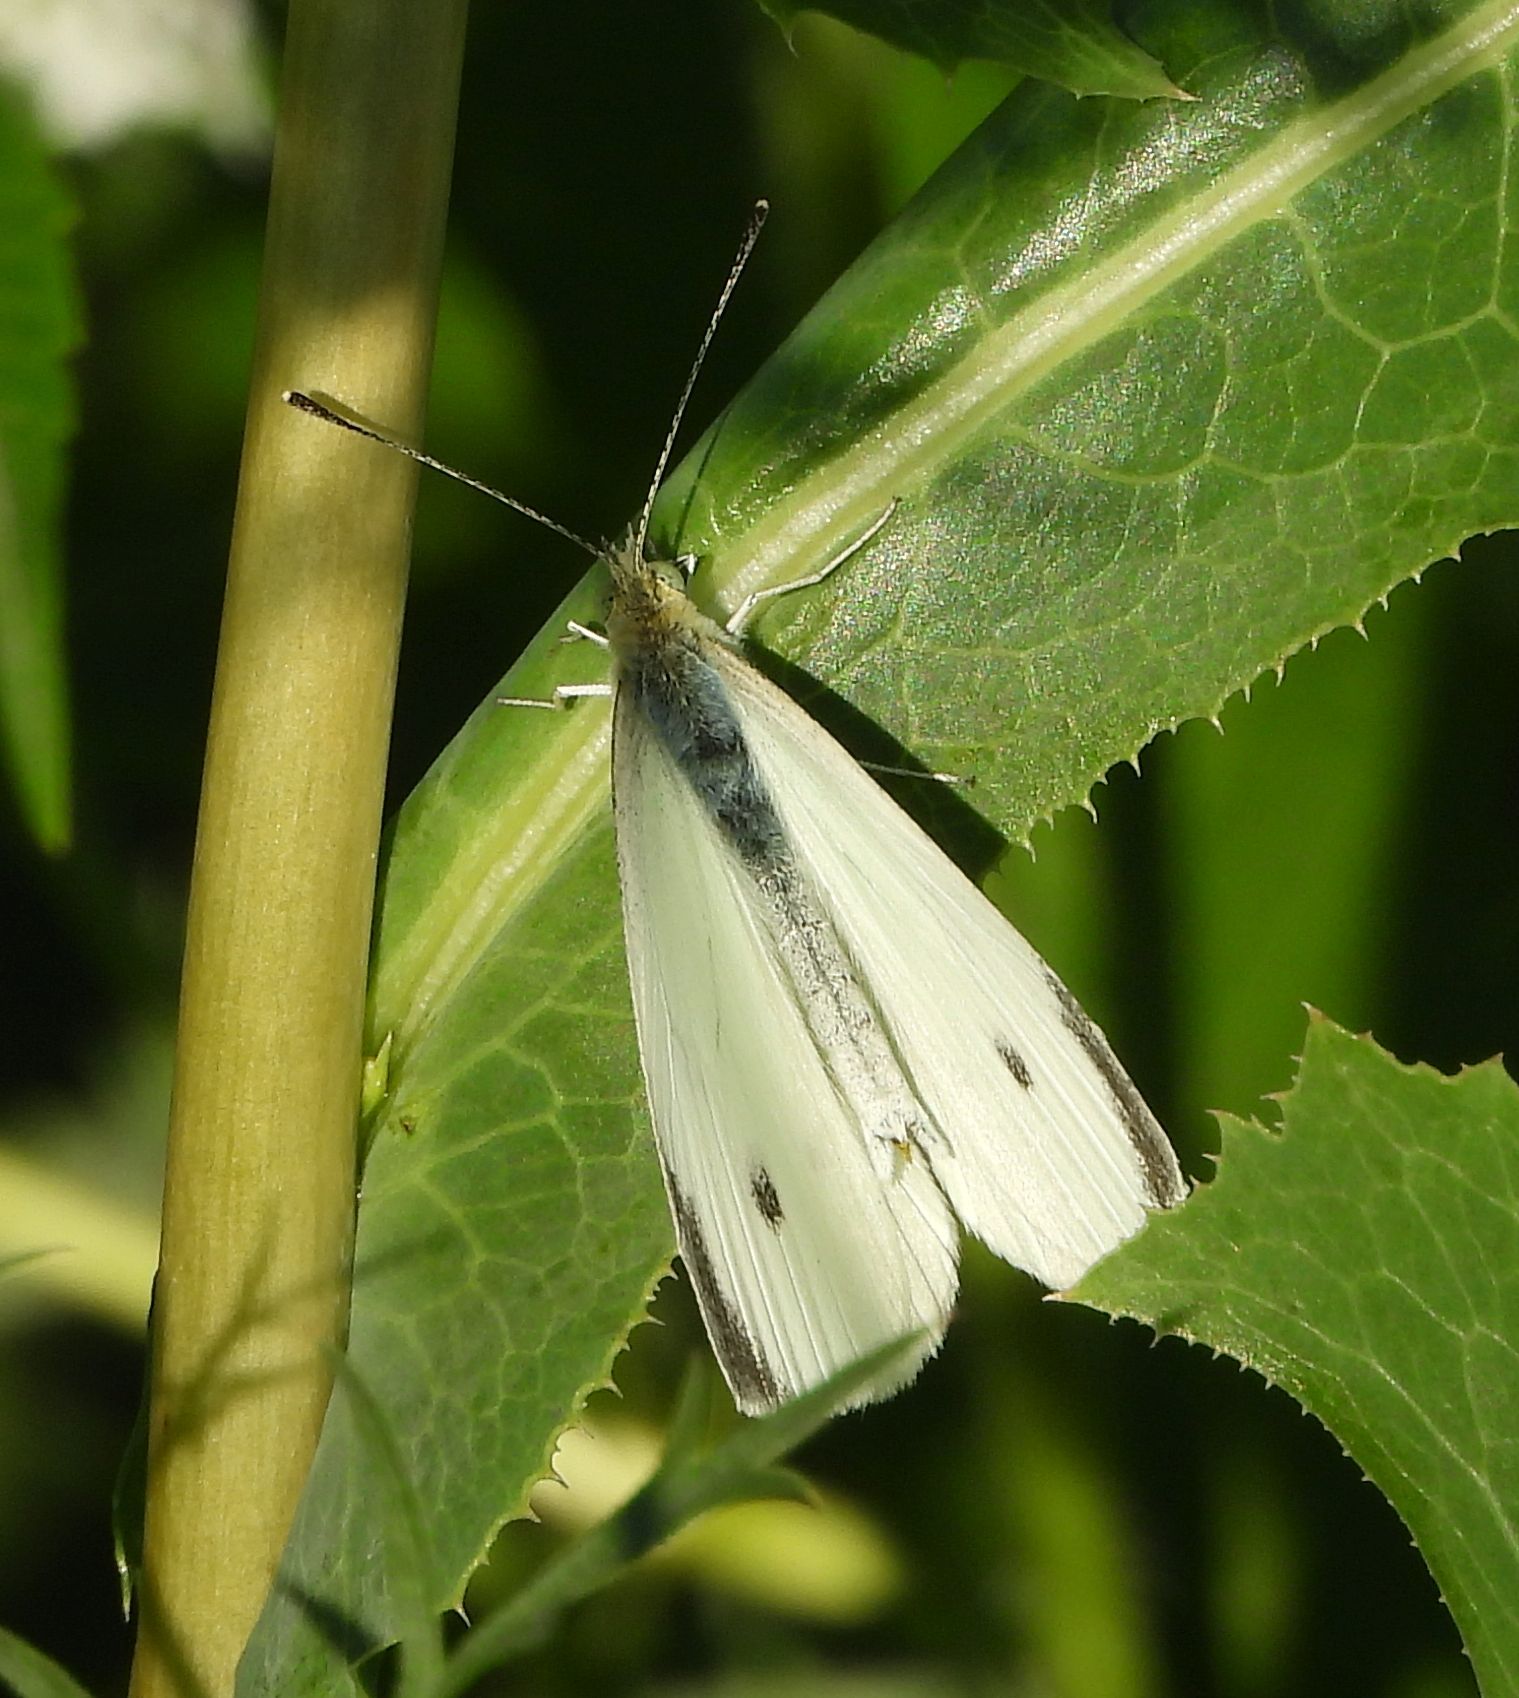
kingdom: Animalia
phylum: Arthropoda
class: Insecta
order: Lepidoptera
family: Pieridae
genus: Pieris
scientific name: Pieris rapae
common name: Small white
